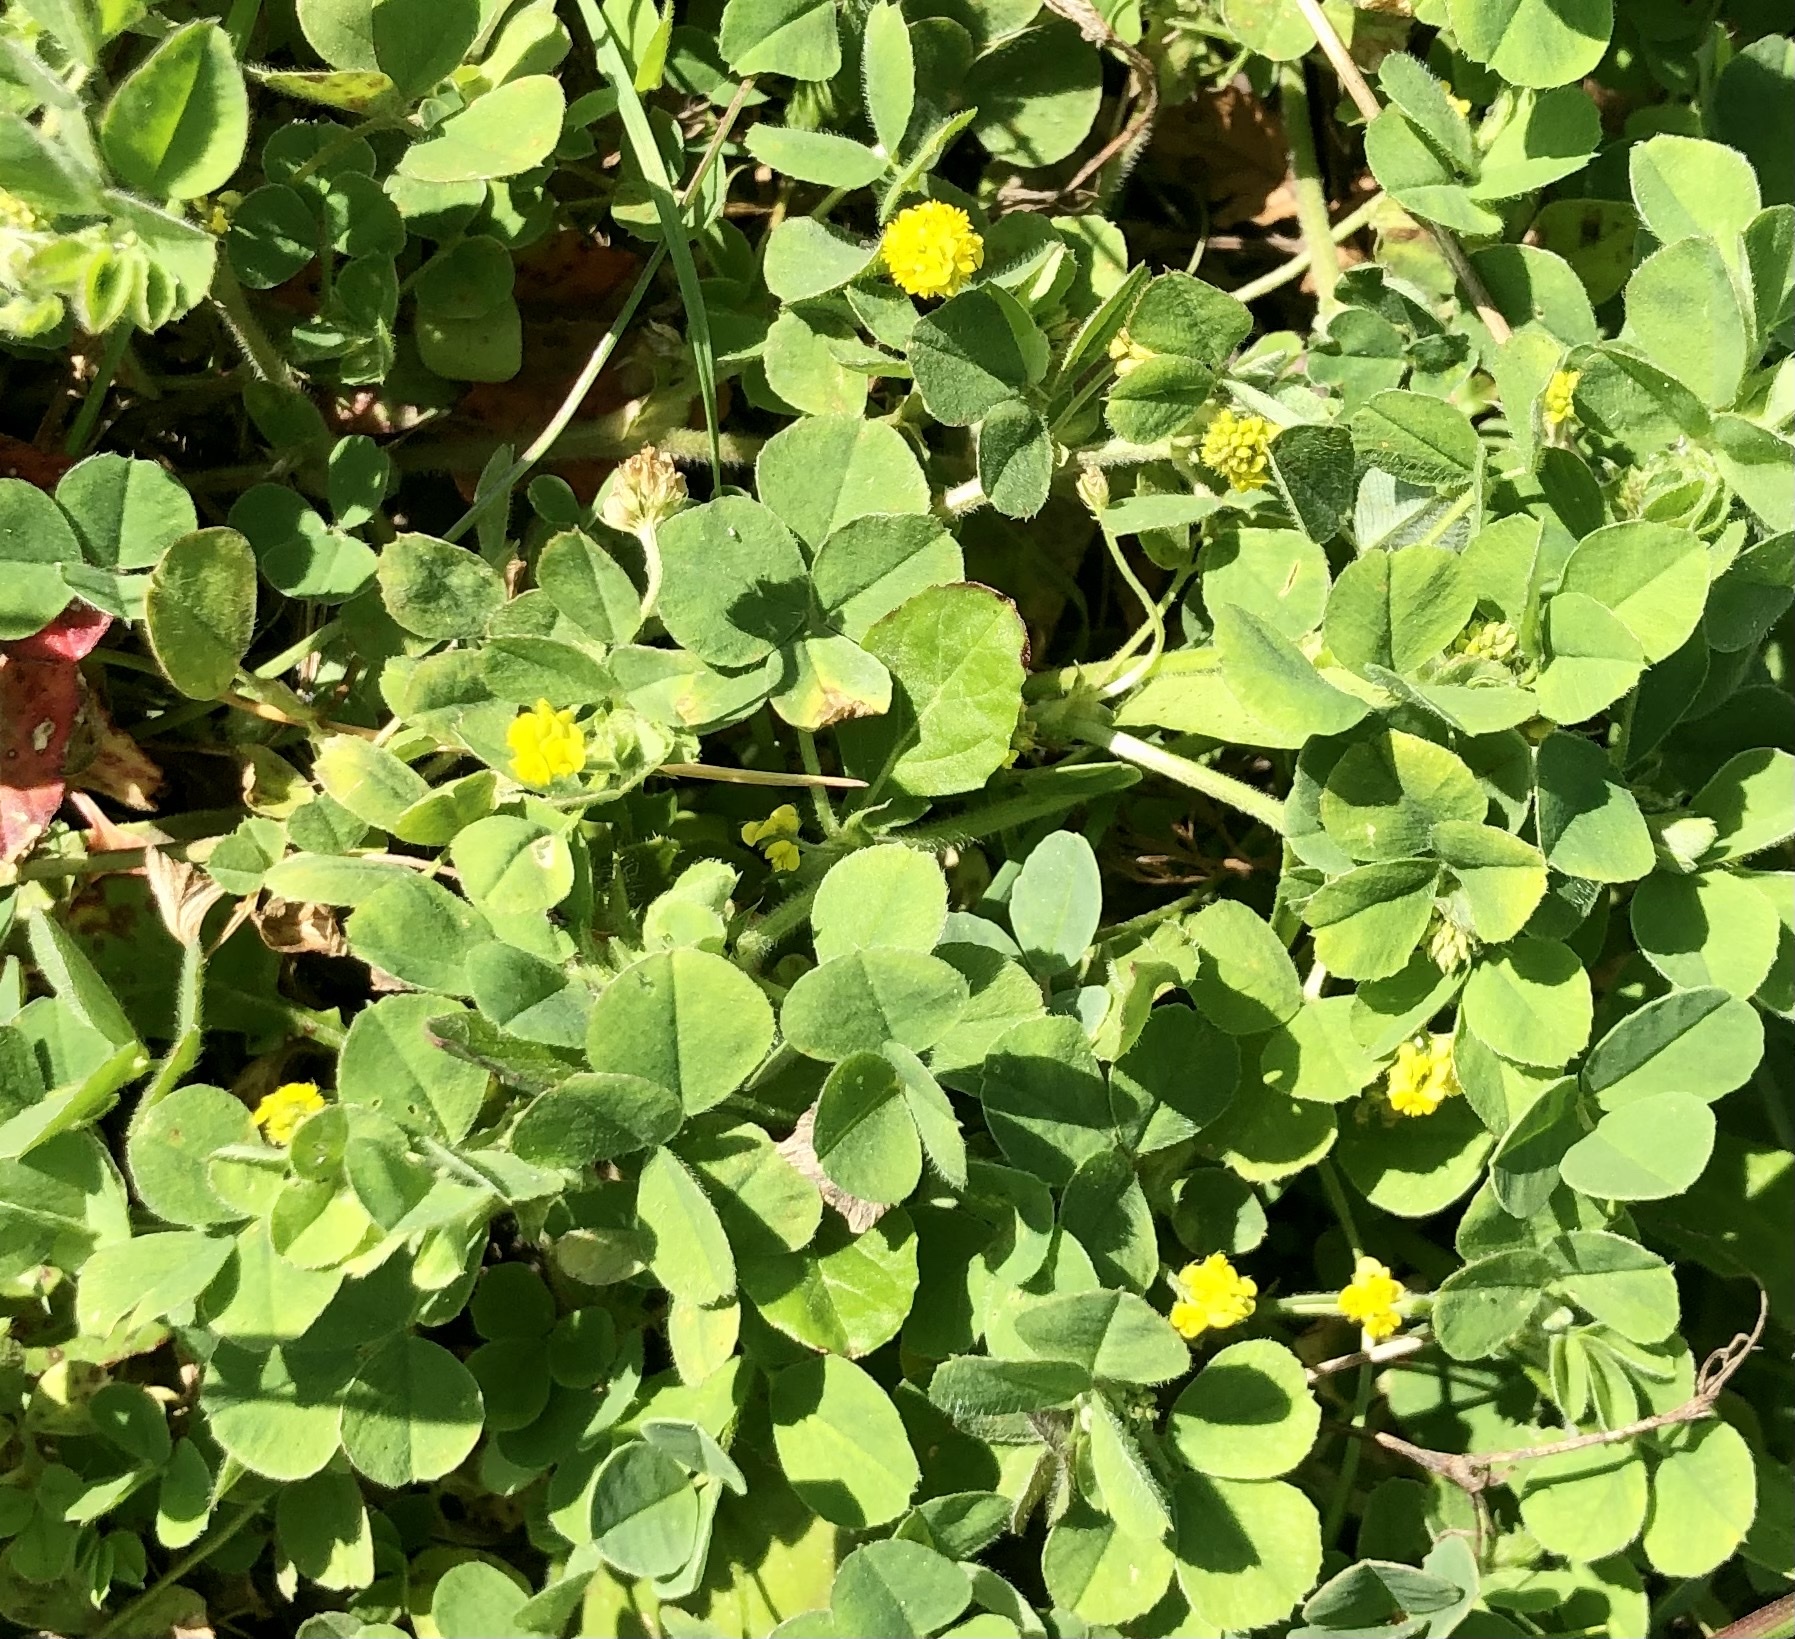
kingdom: Plantae
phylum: Tracheophyta
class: Magnoliopsida
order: Fabales
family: Fabaceae
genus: Medicago
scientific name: Medicago lupulina
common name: Black medick
